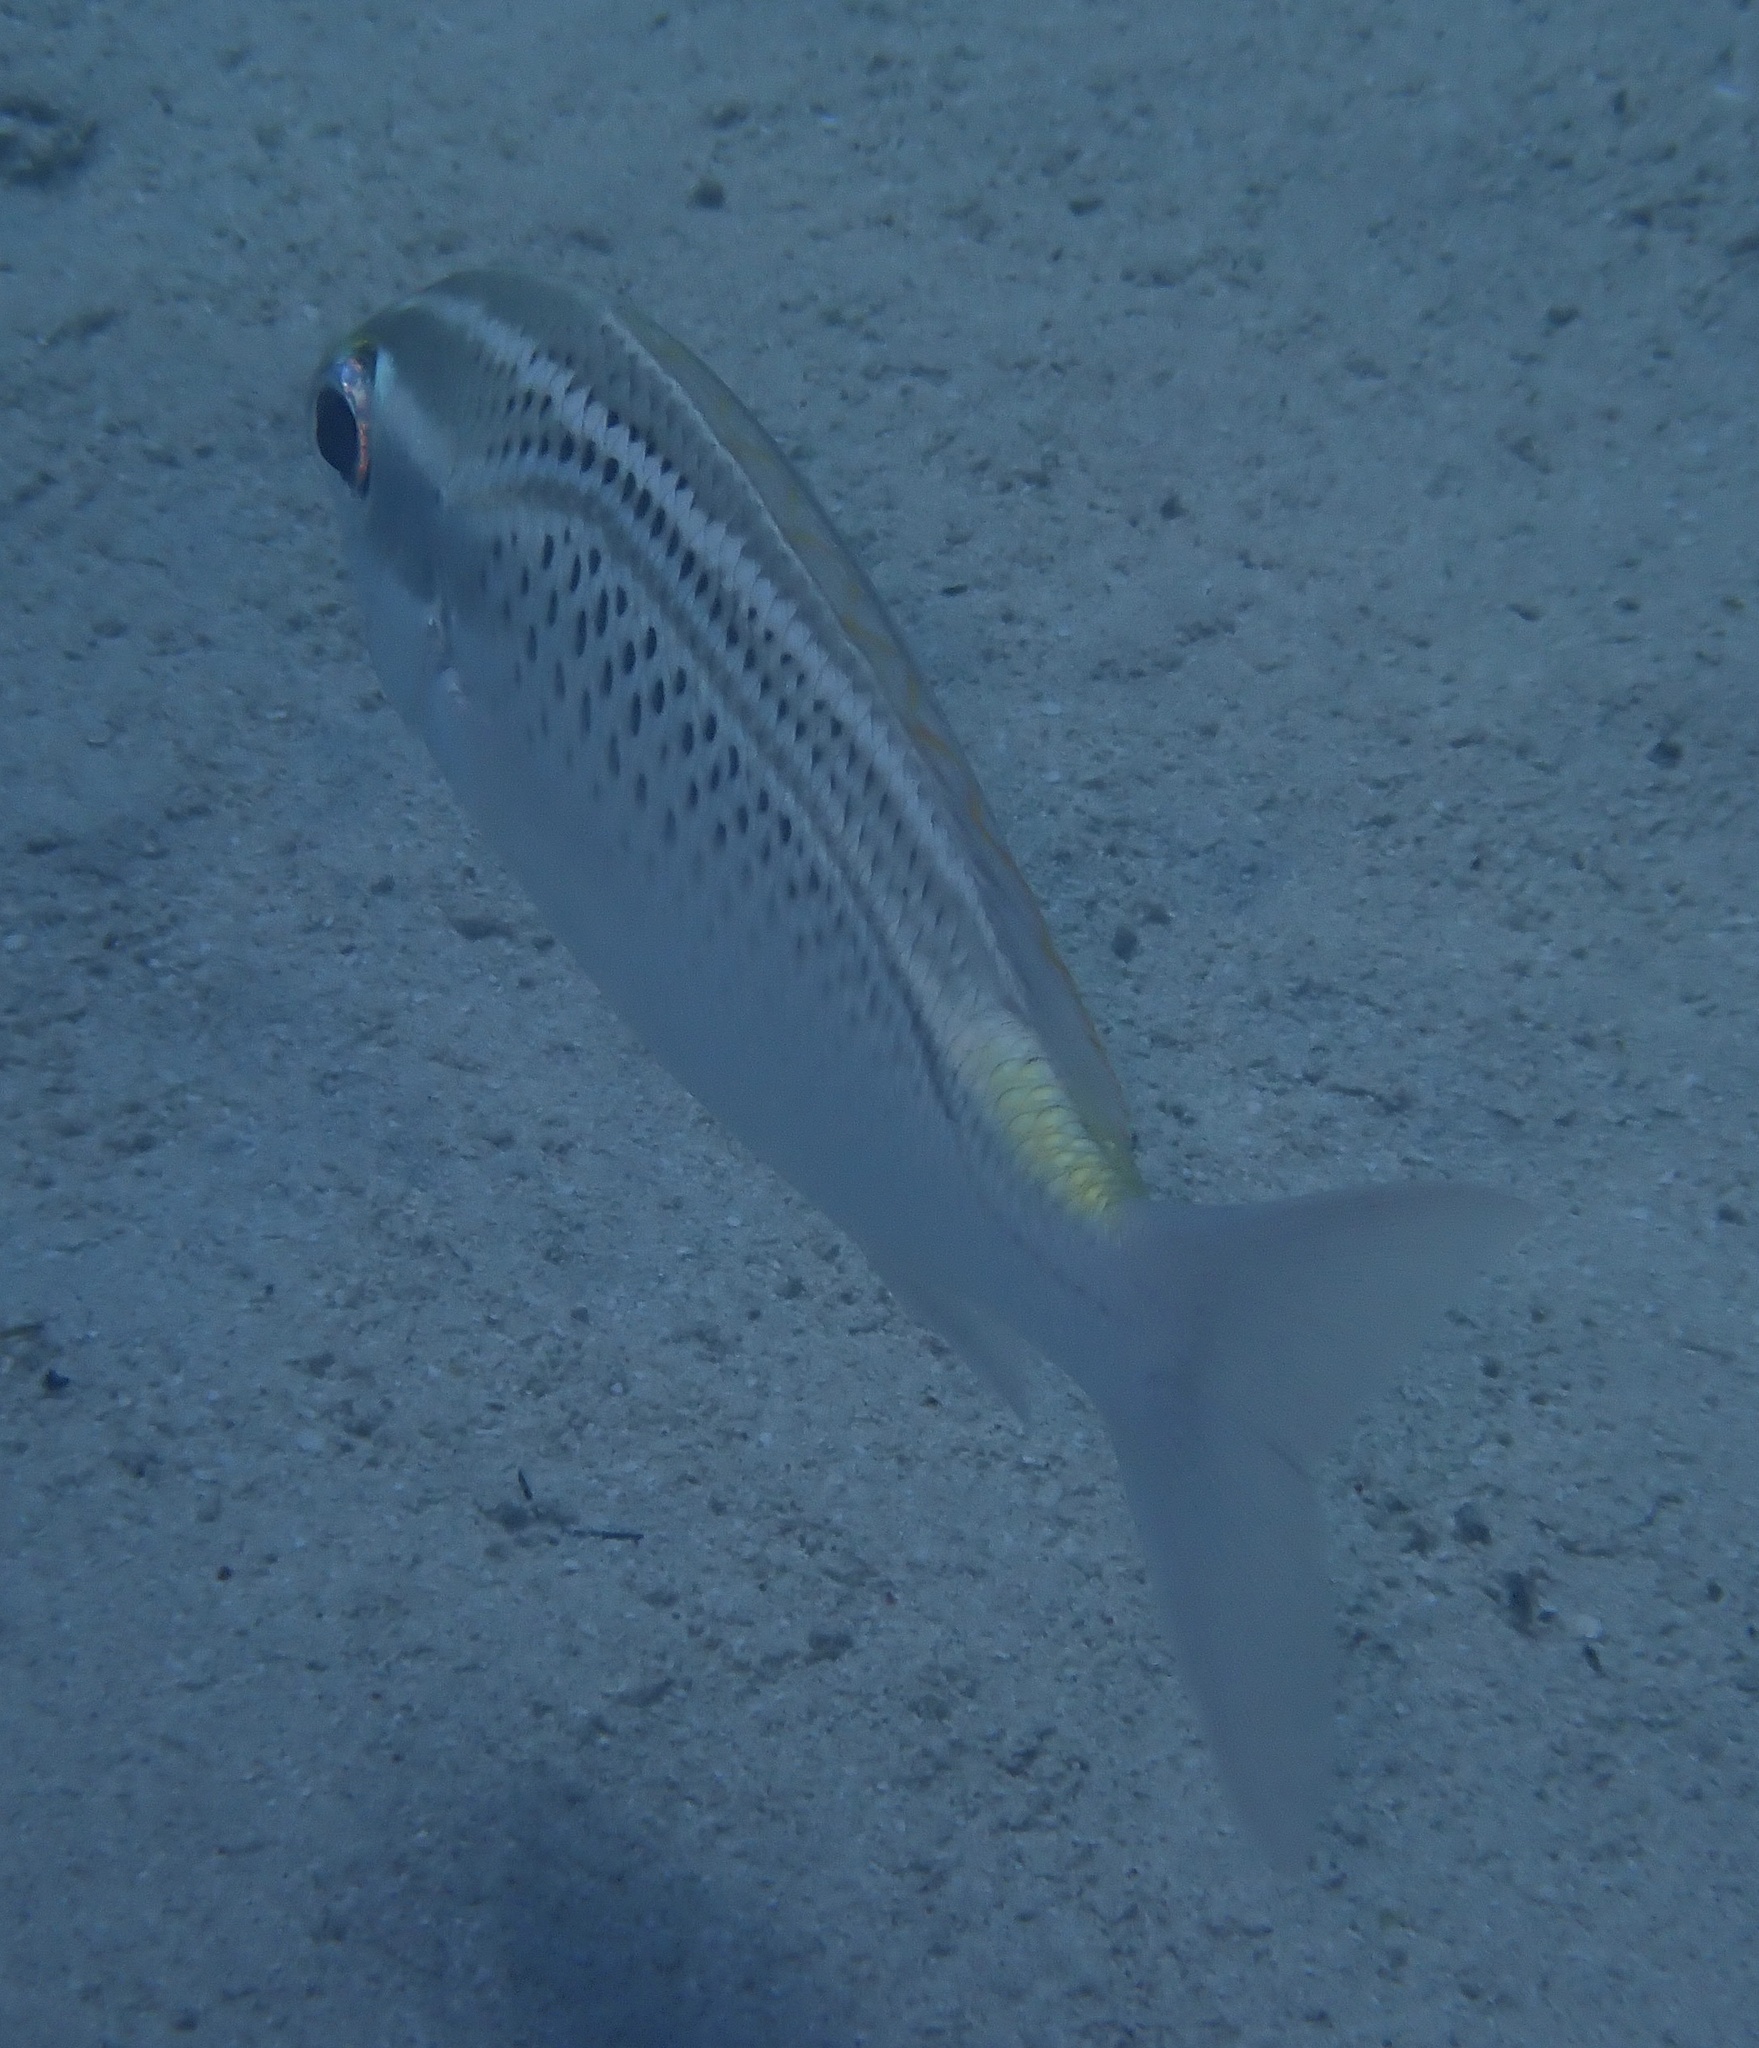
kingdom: Animalia
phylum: Chordata
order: Perciformes
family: Nemipteridae
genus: Scolopsis
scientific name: Scolopsis ghanam
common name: Arabian monocle bream
